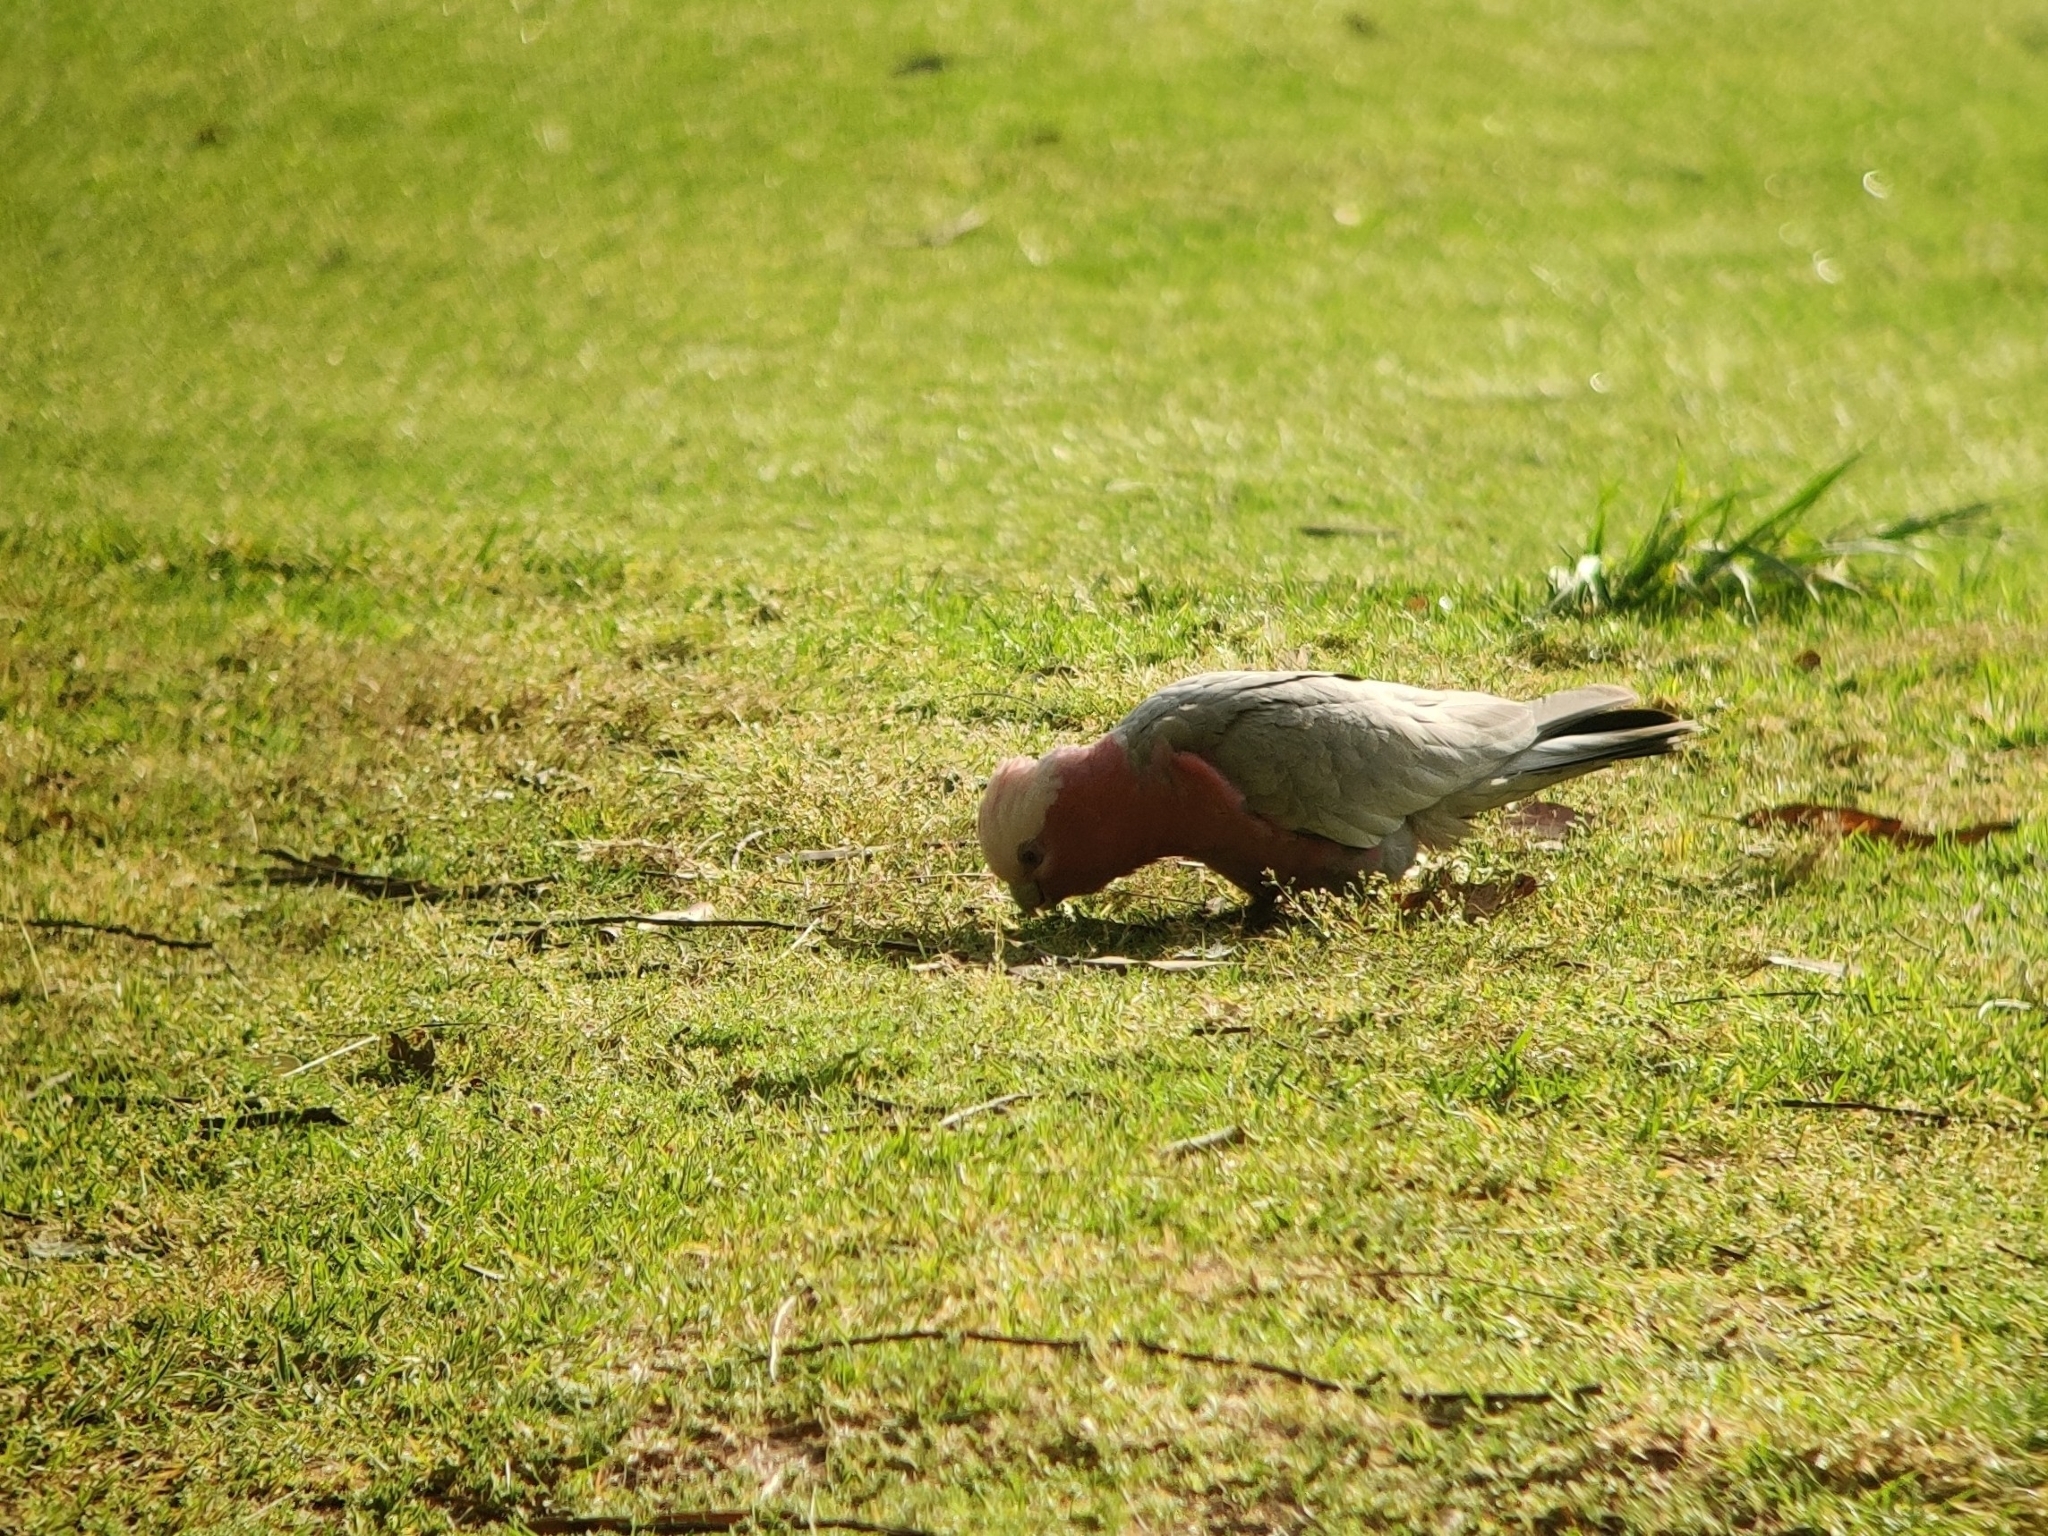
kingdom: Animalia
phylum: Chordata
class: Aves
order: Psittaciformes
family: Psittacidae
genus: Eolophus
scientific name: Eolophus roseicapilla
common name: Galah
